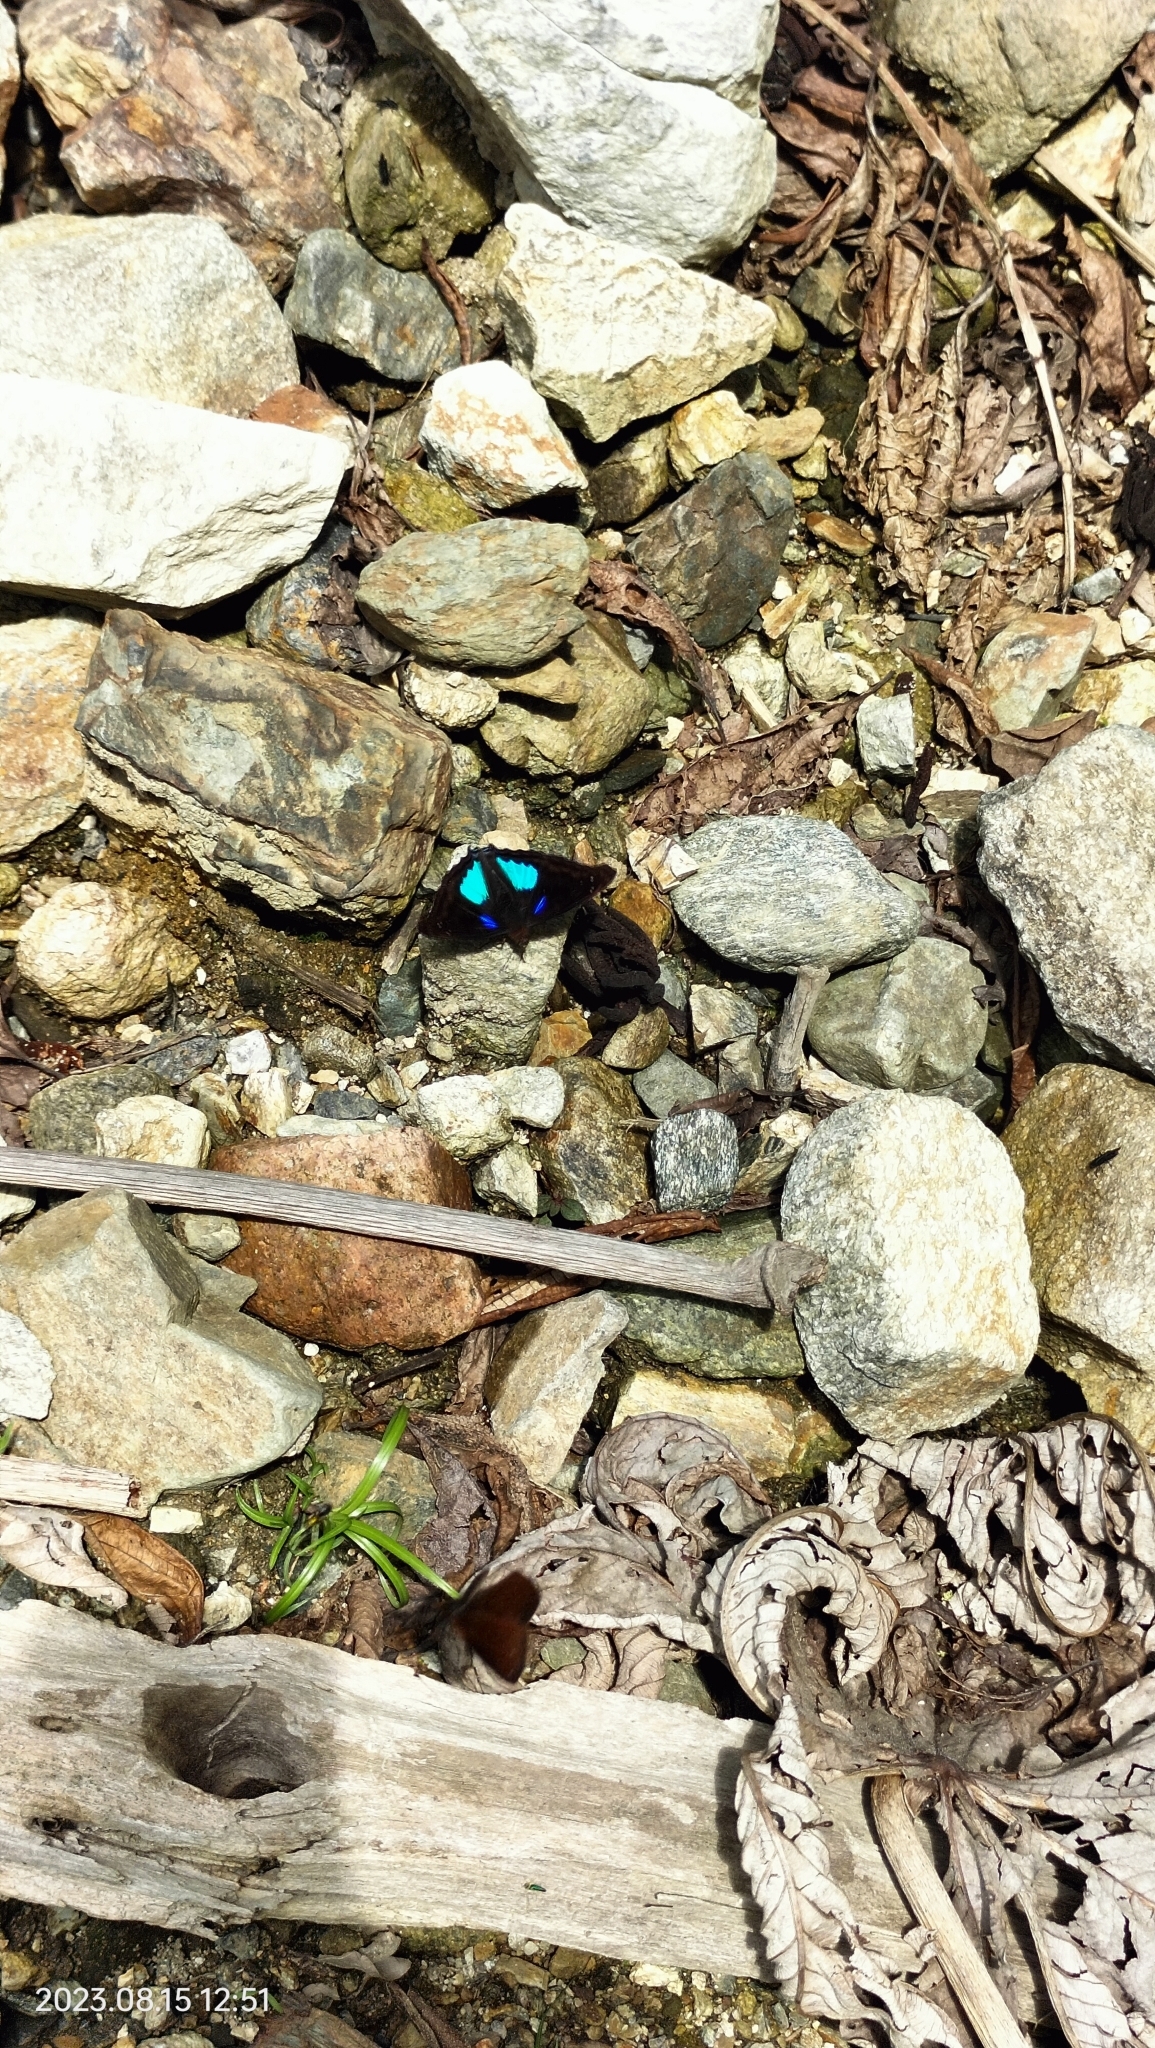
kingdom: Animalia
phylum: Arthropoda
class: Insecta
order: Lepidoptera
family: Nymphalidae
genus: Doxocopa
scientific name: Doxocopa cyane
